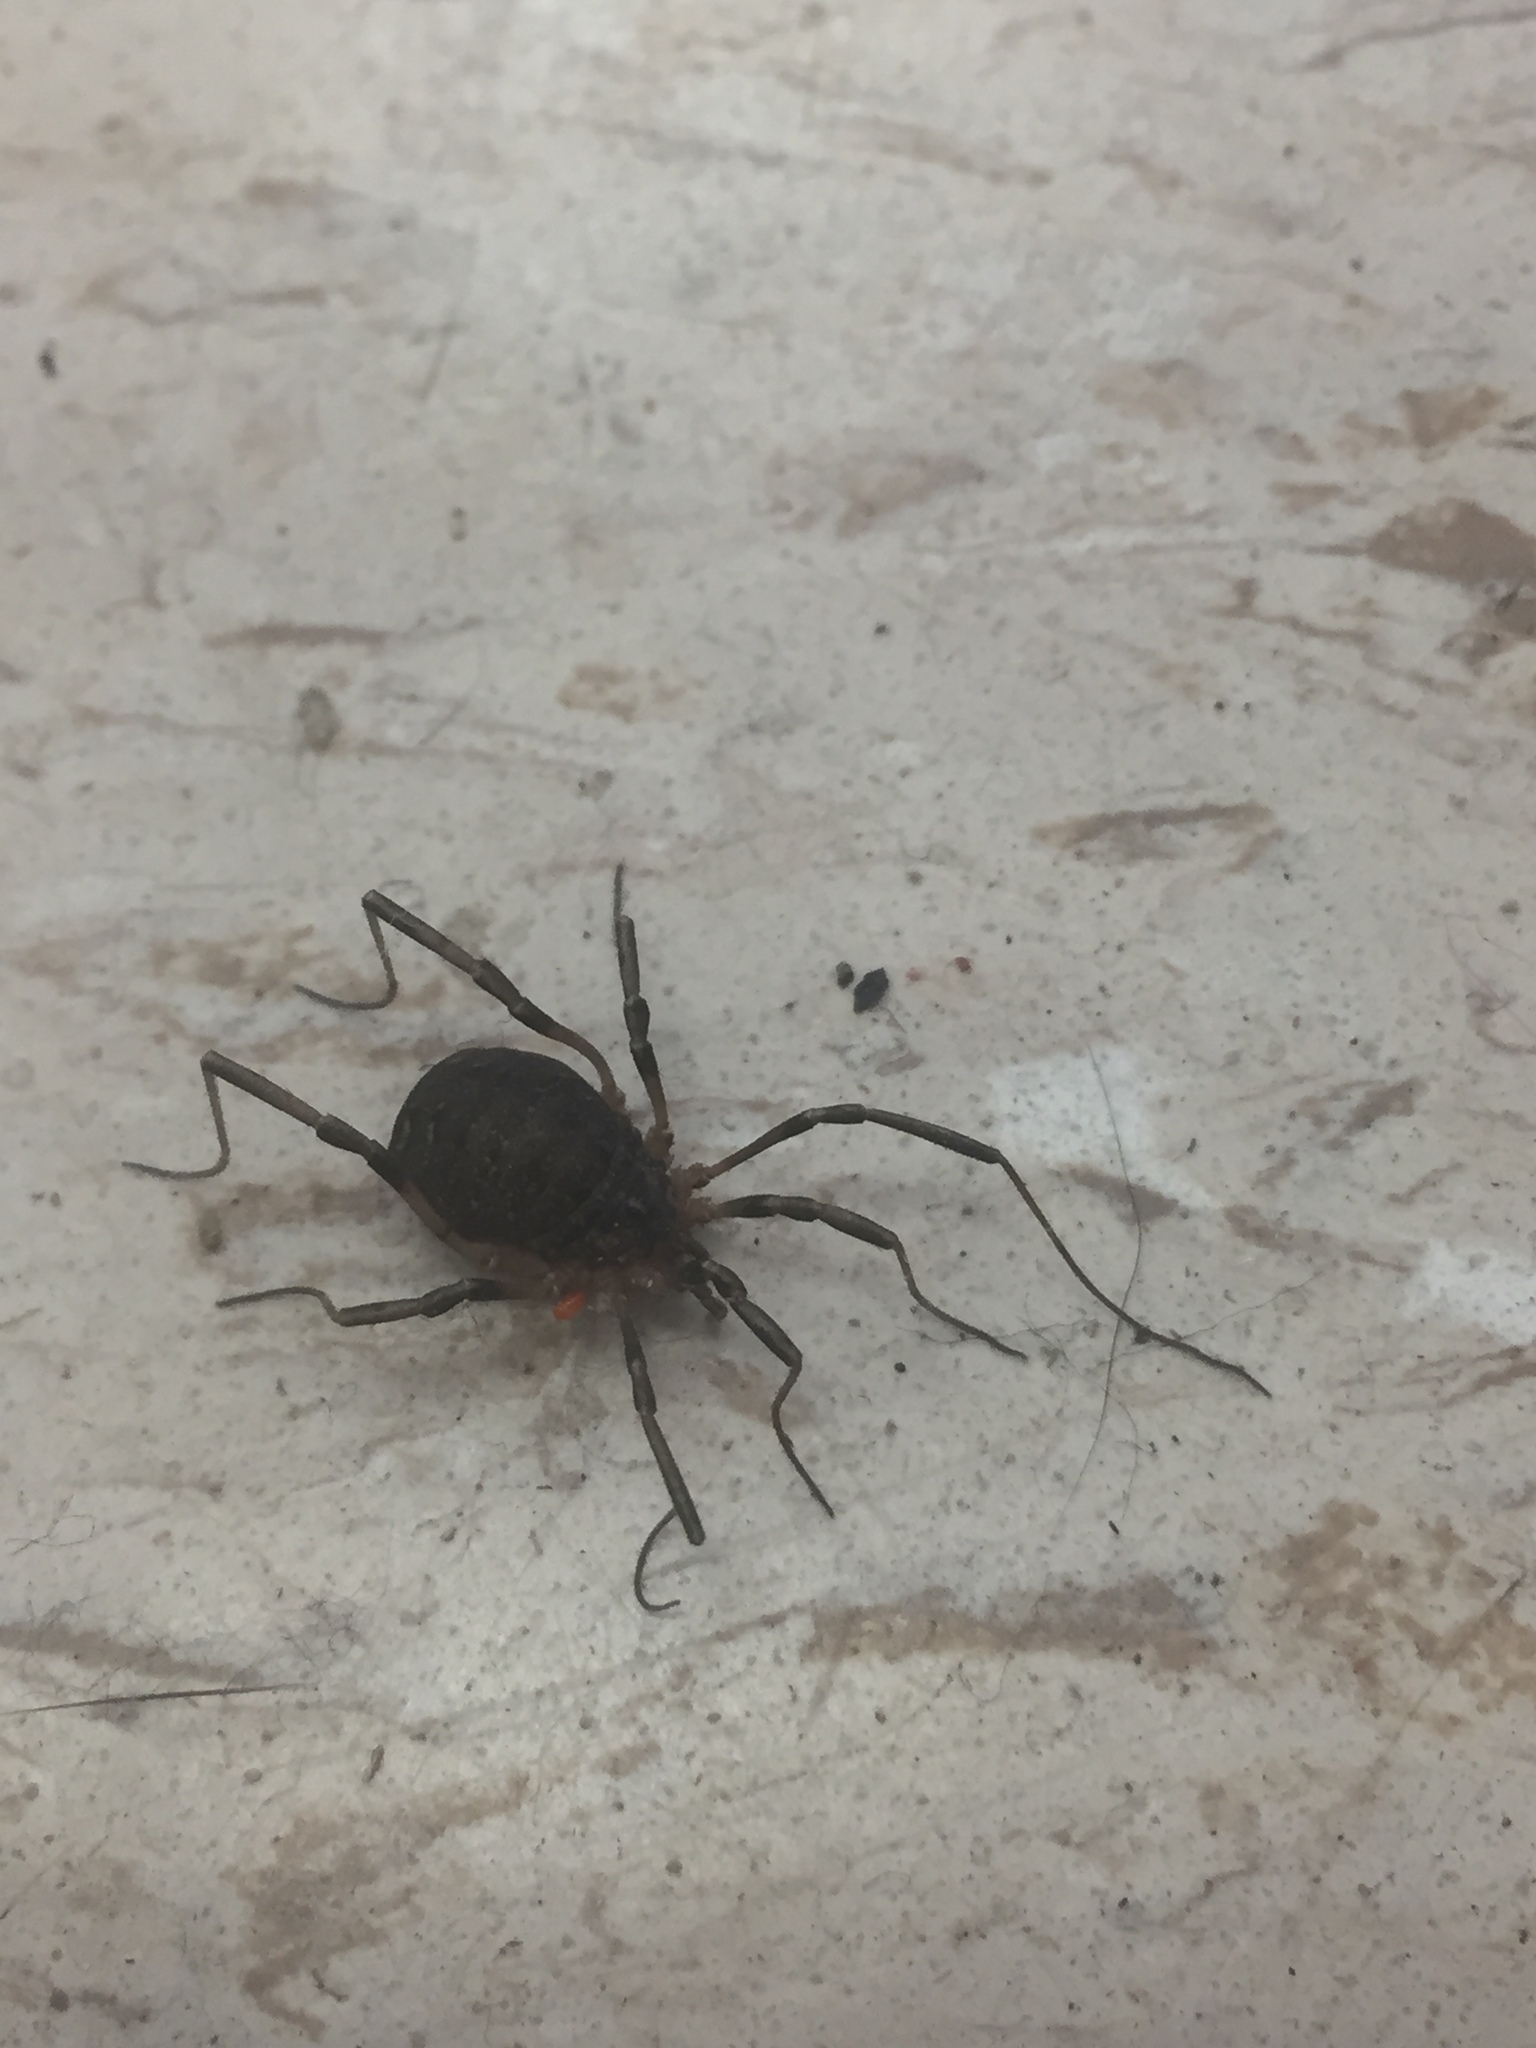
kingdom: Animalia
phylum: Arthropoda
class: Arachnida
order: Opiliones
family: Sclerosomatidae
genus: Eumesosoma
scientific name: Eumesosoma roeweri
